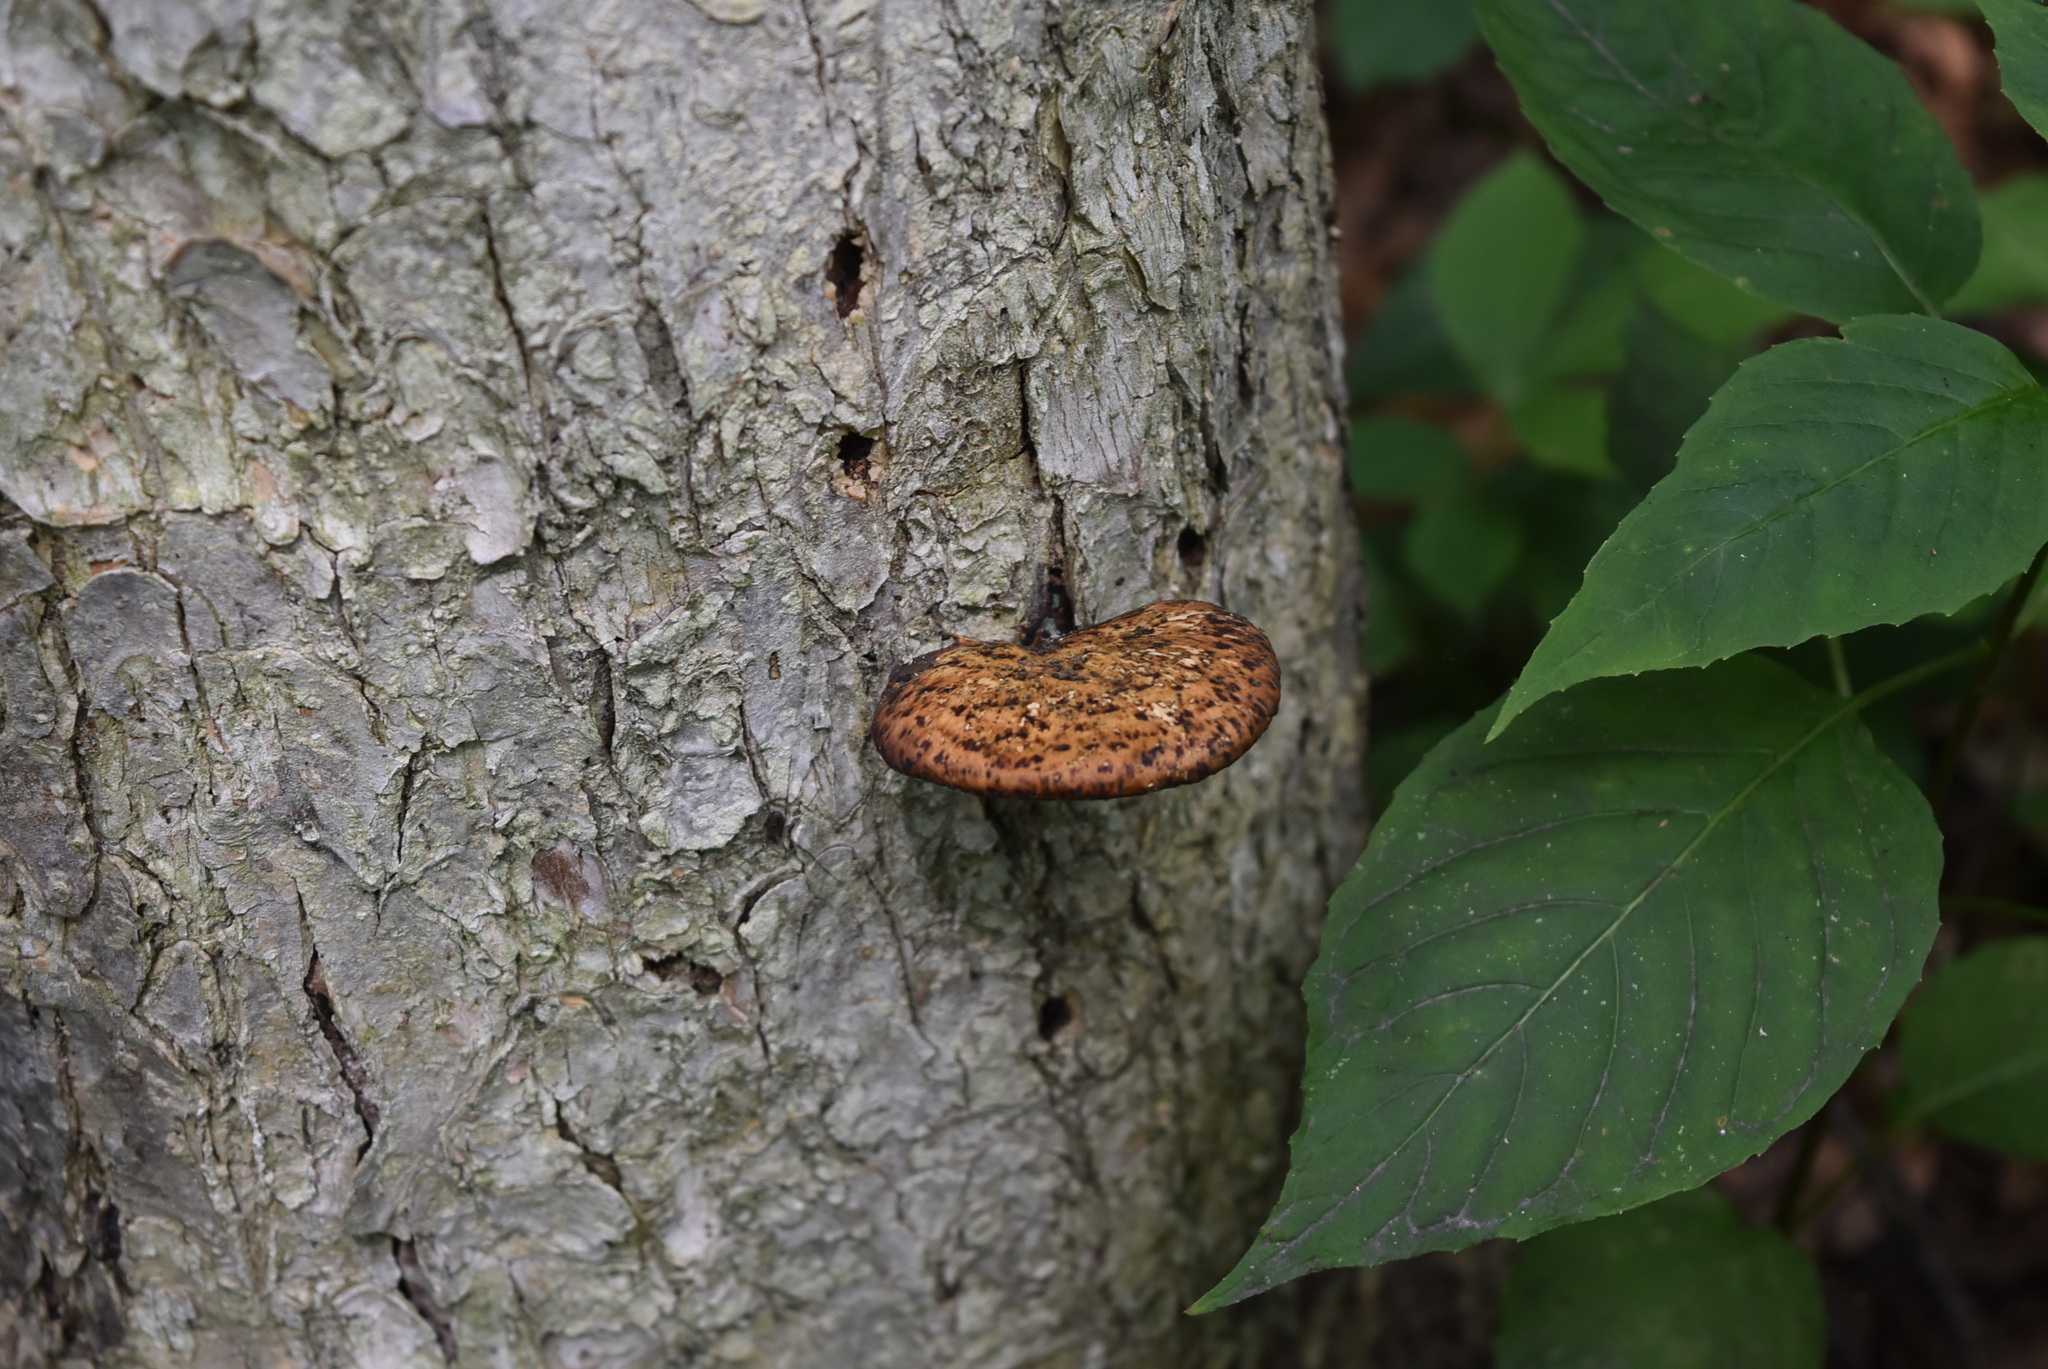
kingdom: Fungi
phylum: Basidiomycota
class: Agaricomycetes
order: Polyporales
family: Polyporaceae
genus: Cerioporus
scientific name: Cerioporus squamosus
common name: Dryad's saddle
